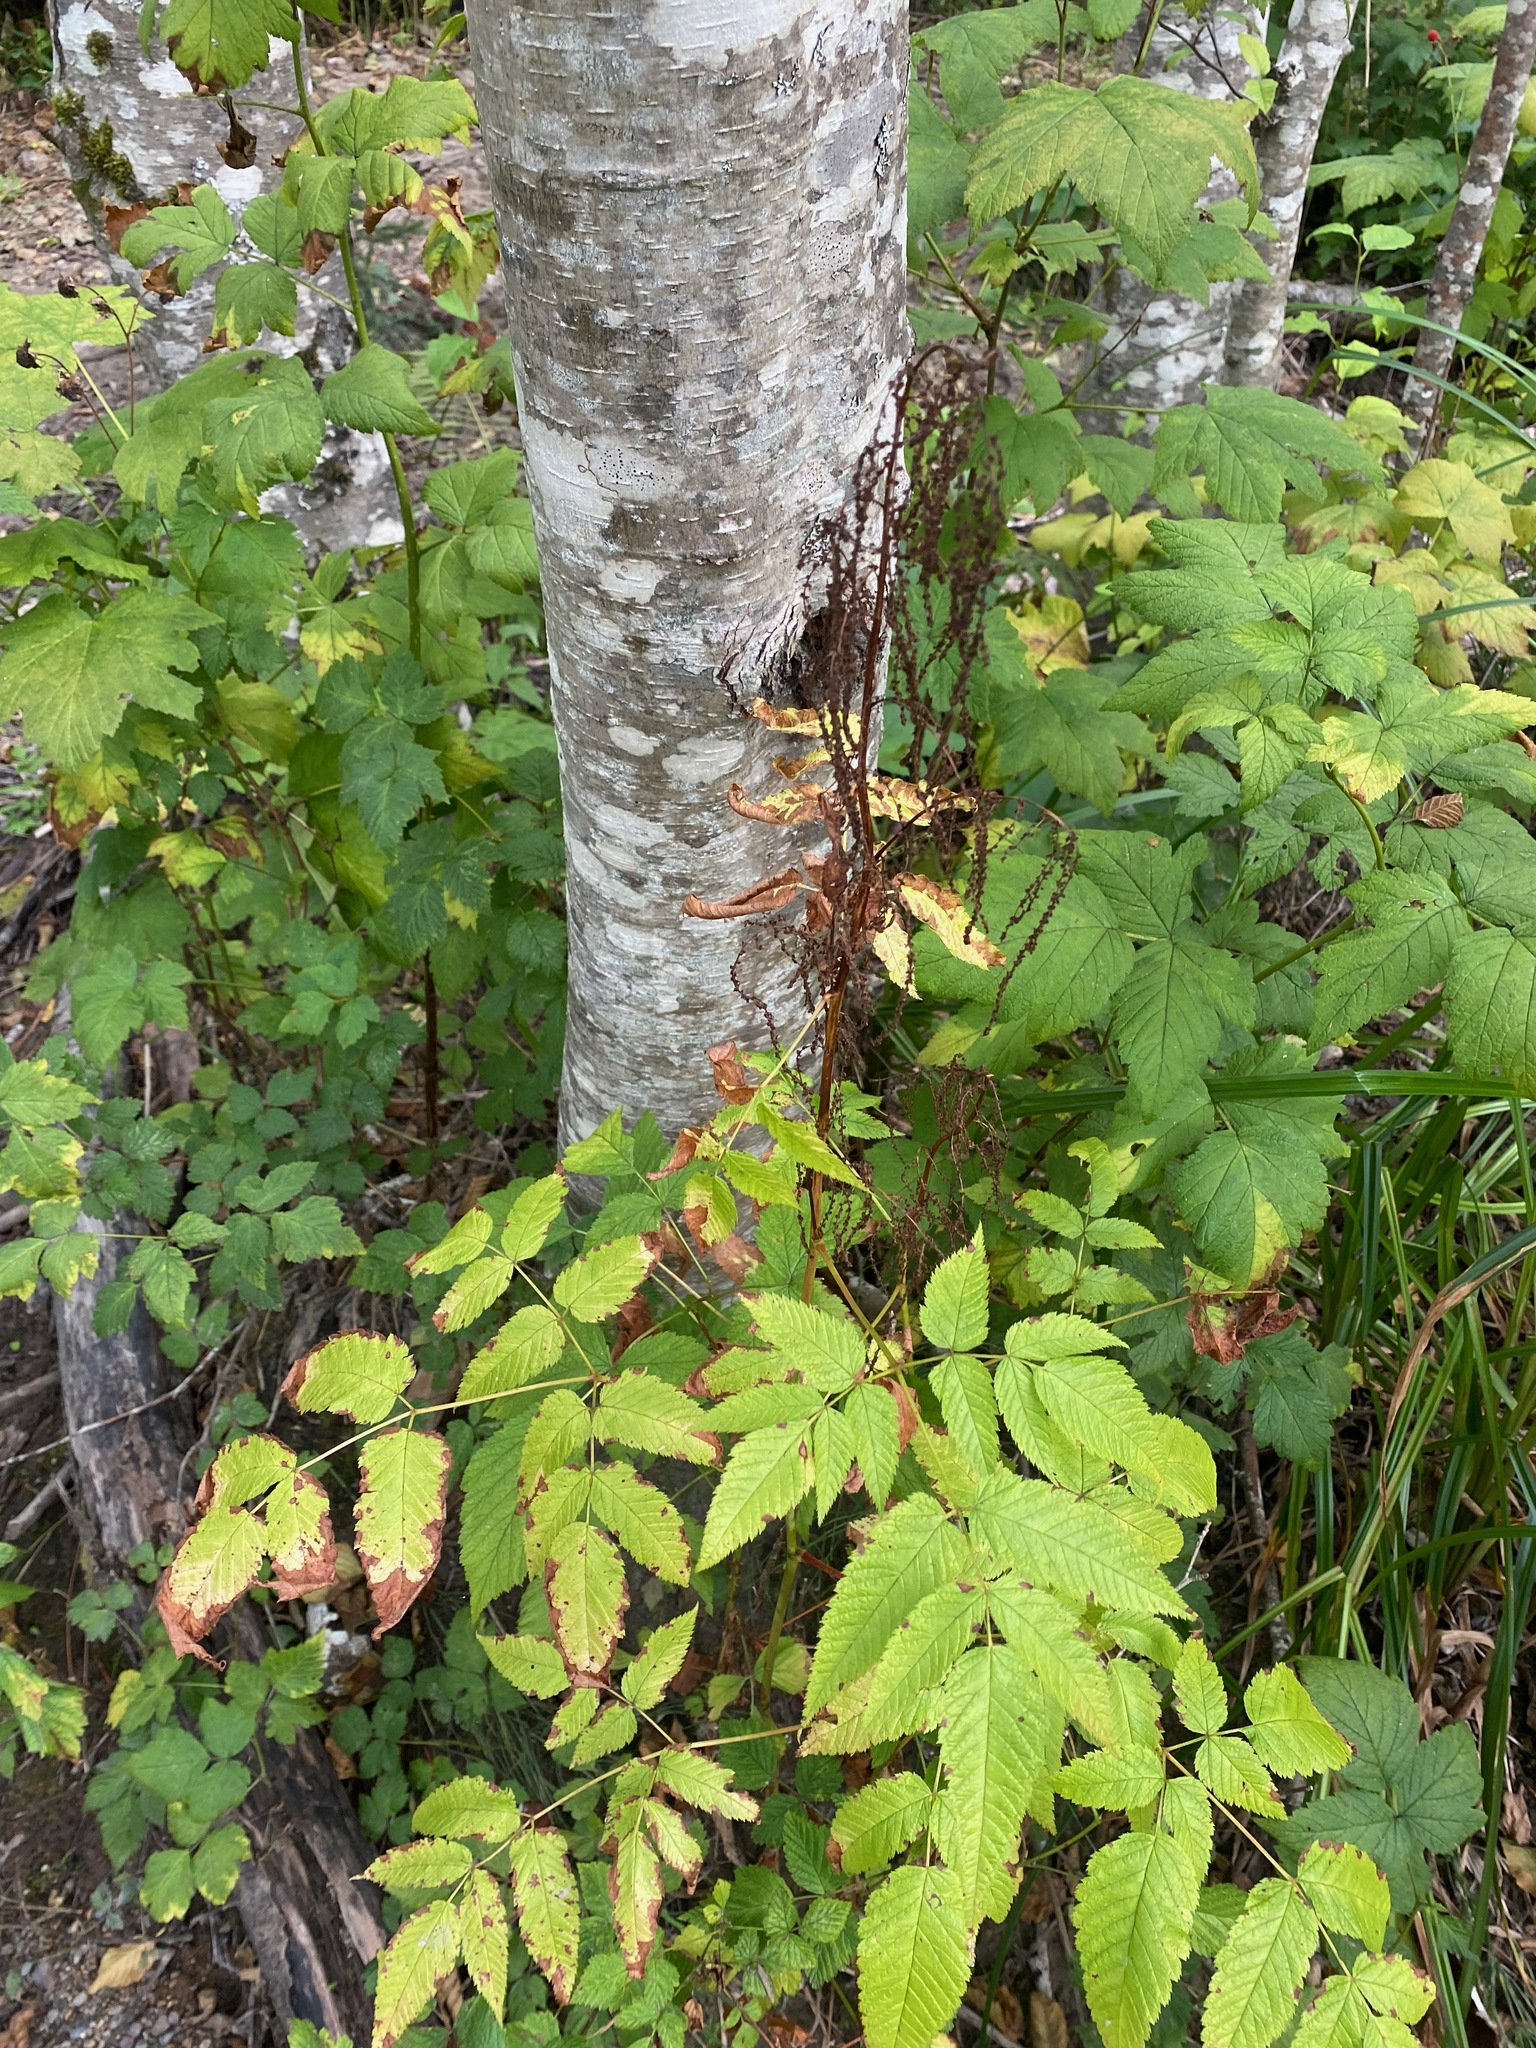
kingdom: Plantae
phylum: Tracheophyta
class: Magnoliopsida
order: Rosales
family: Rosaceae
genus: Aruncus
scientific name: Aruncus dioicus
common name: Buck's-beard
